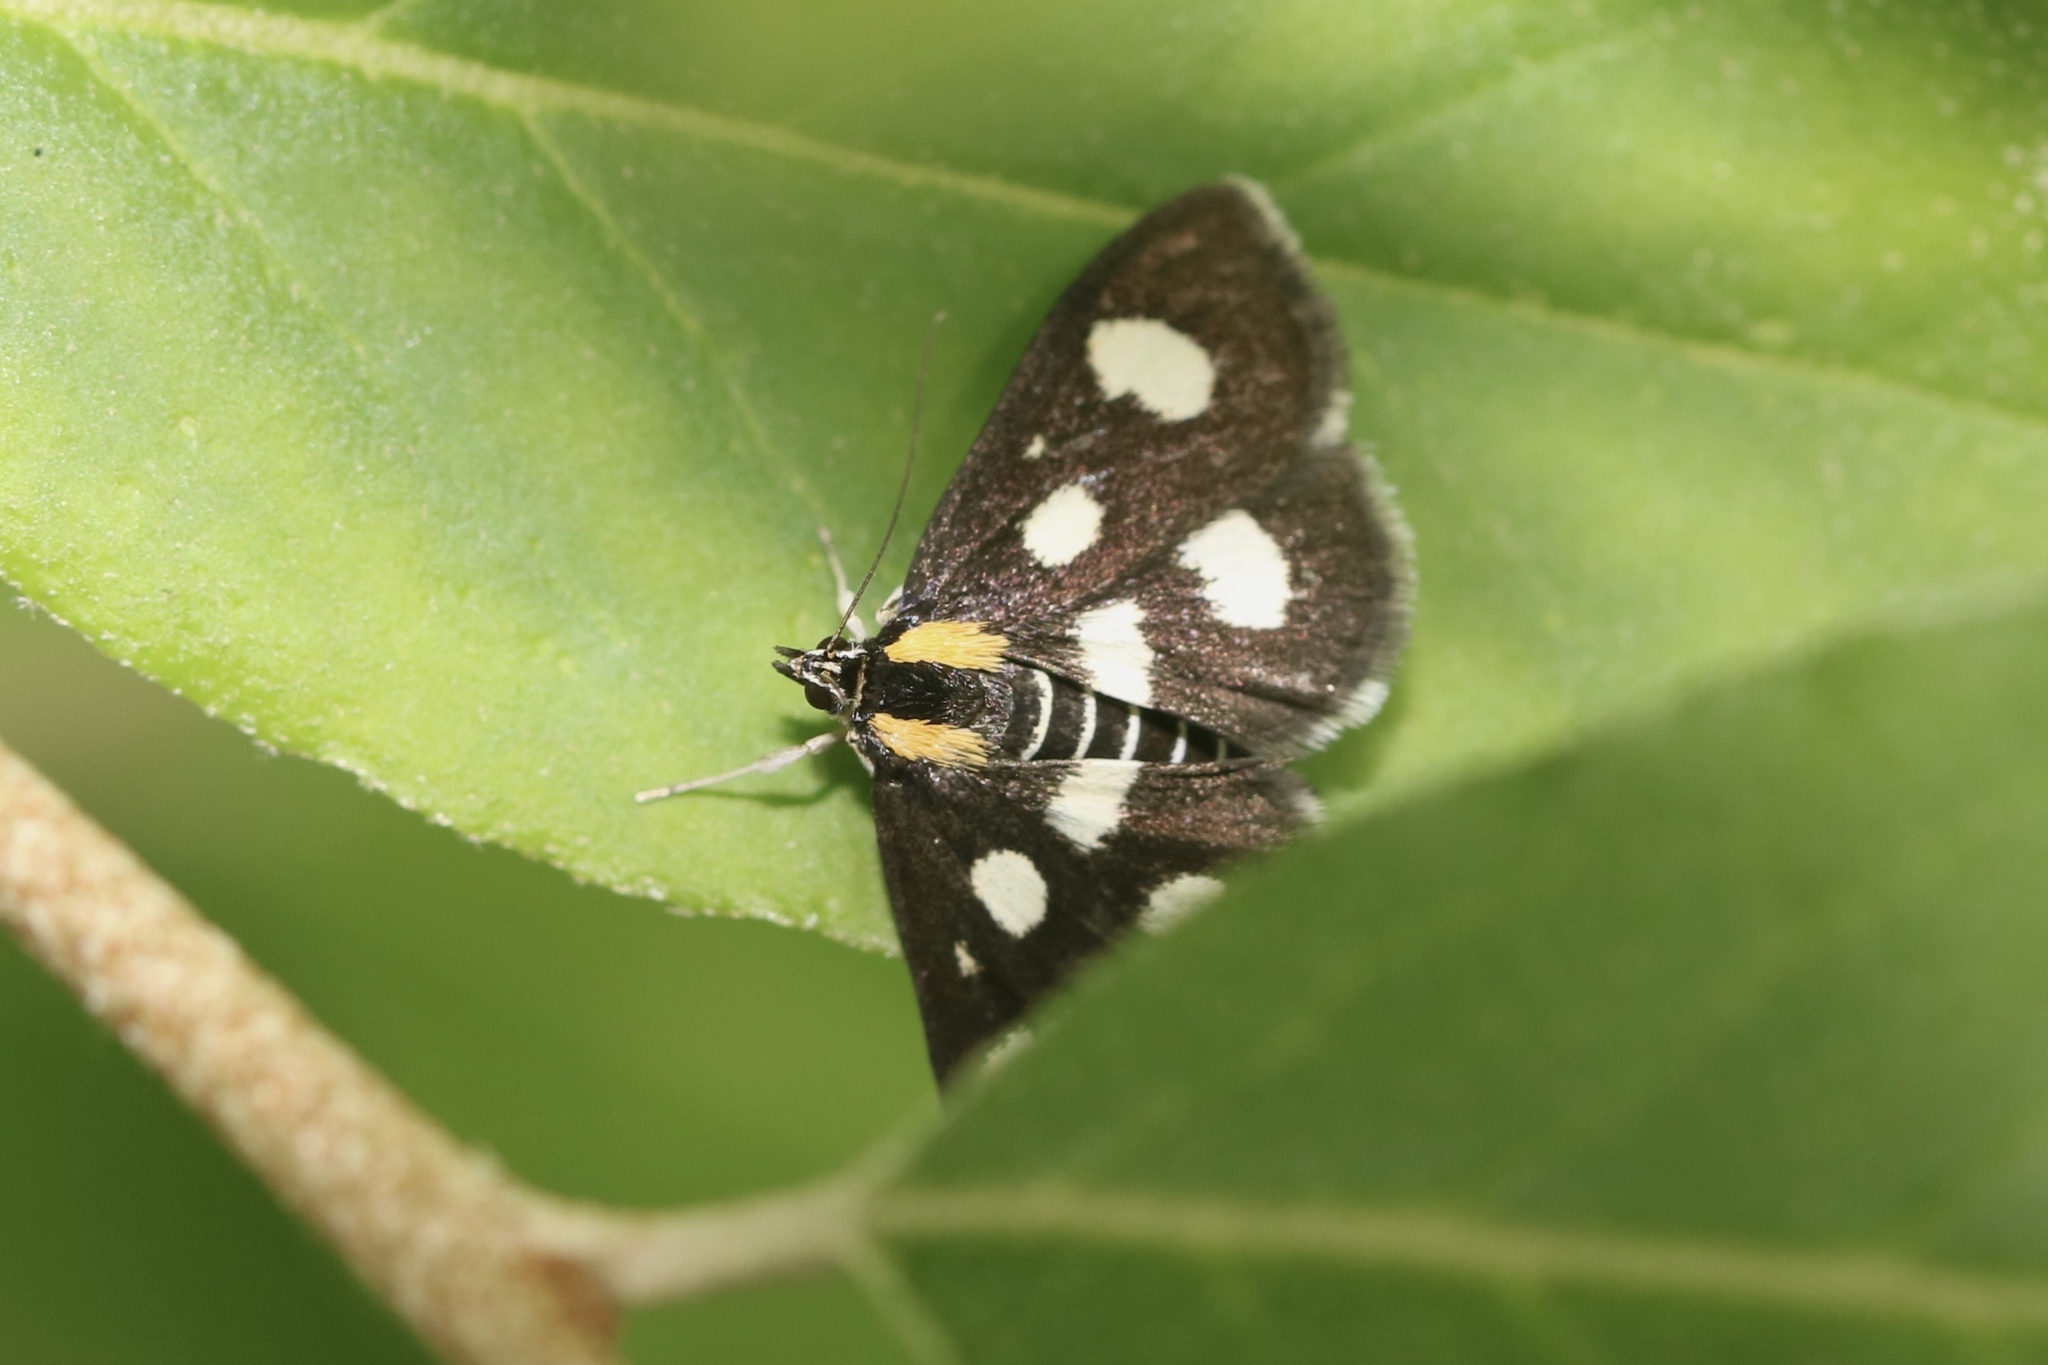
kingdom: Animalia
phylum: Arthropoda
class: Insecta
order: Lepidoptera
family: Crambidae
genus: Anania
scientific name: Anania funebris
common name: White-spotted sable moth
